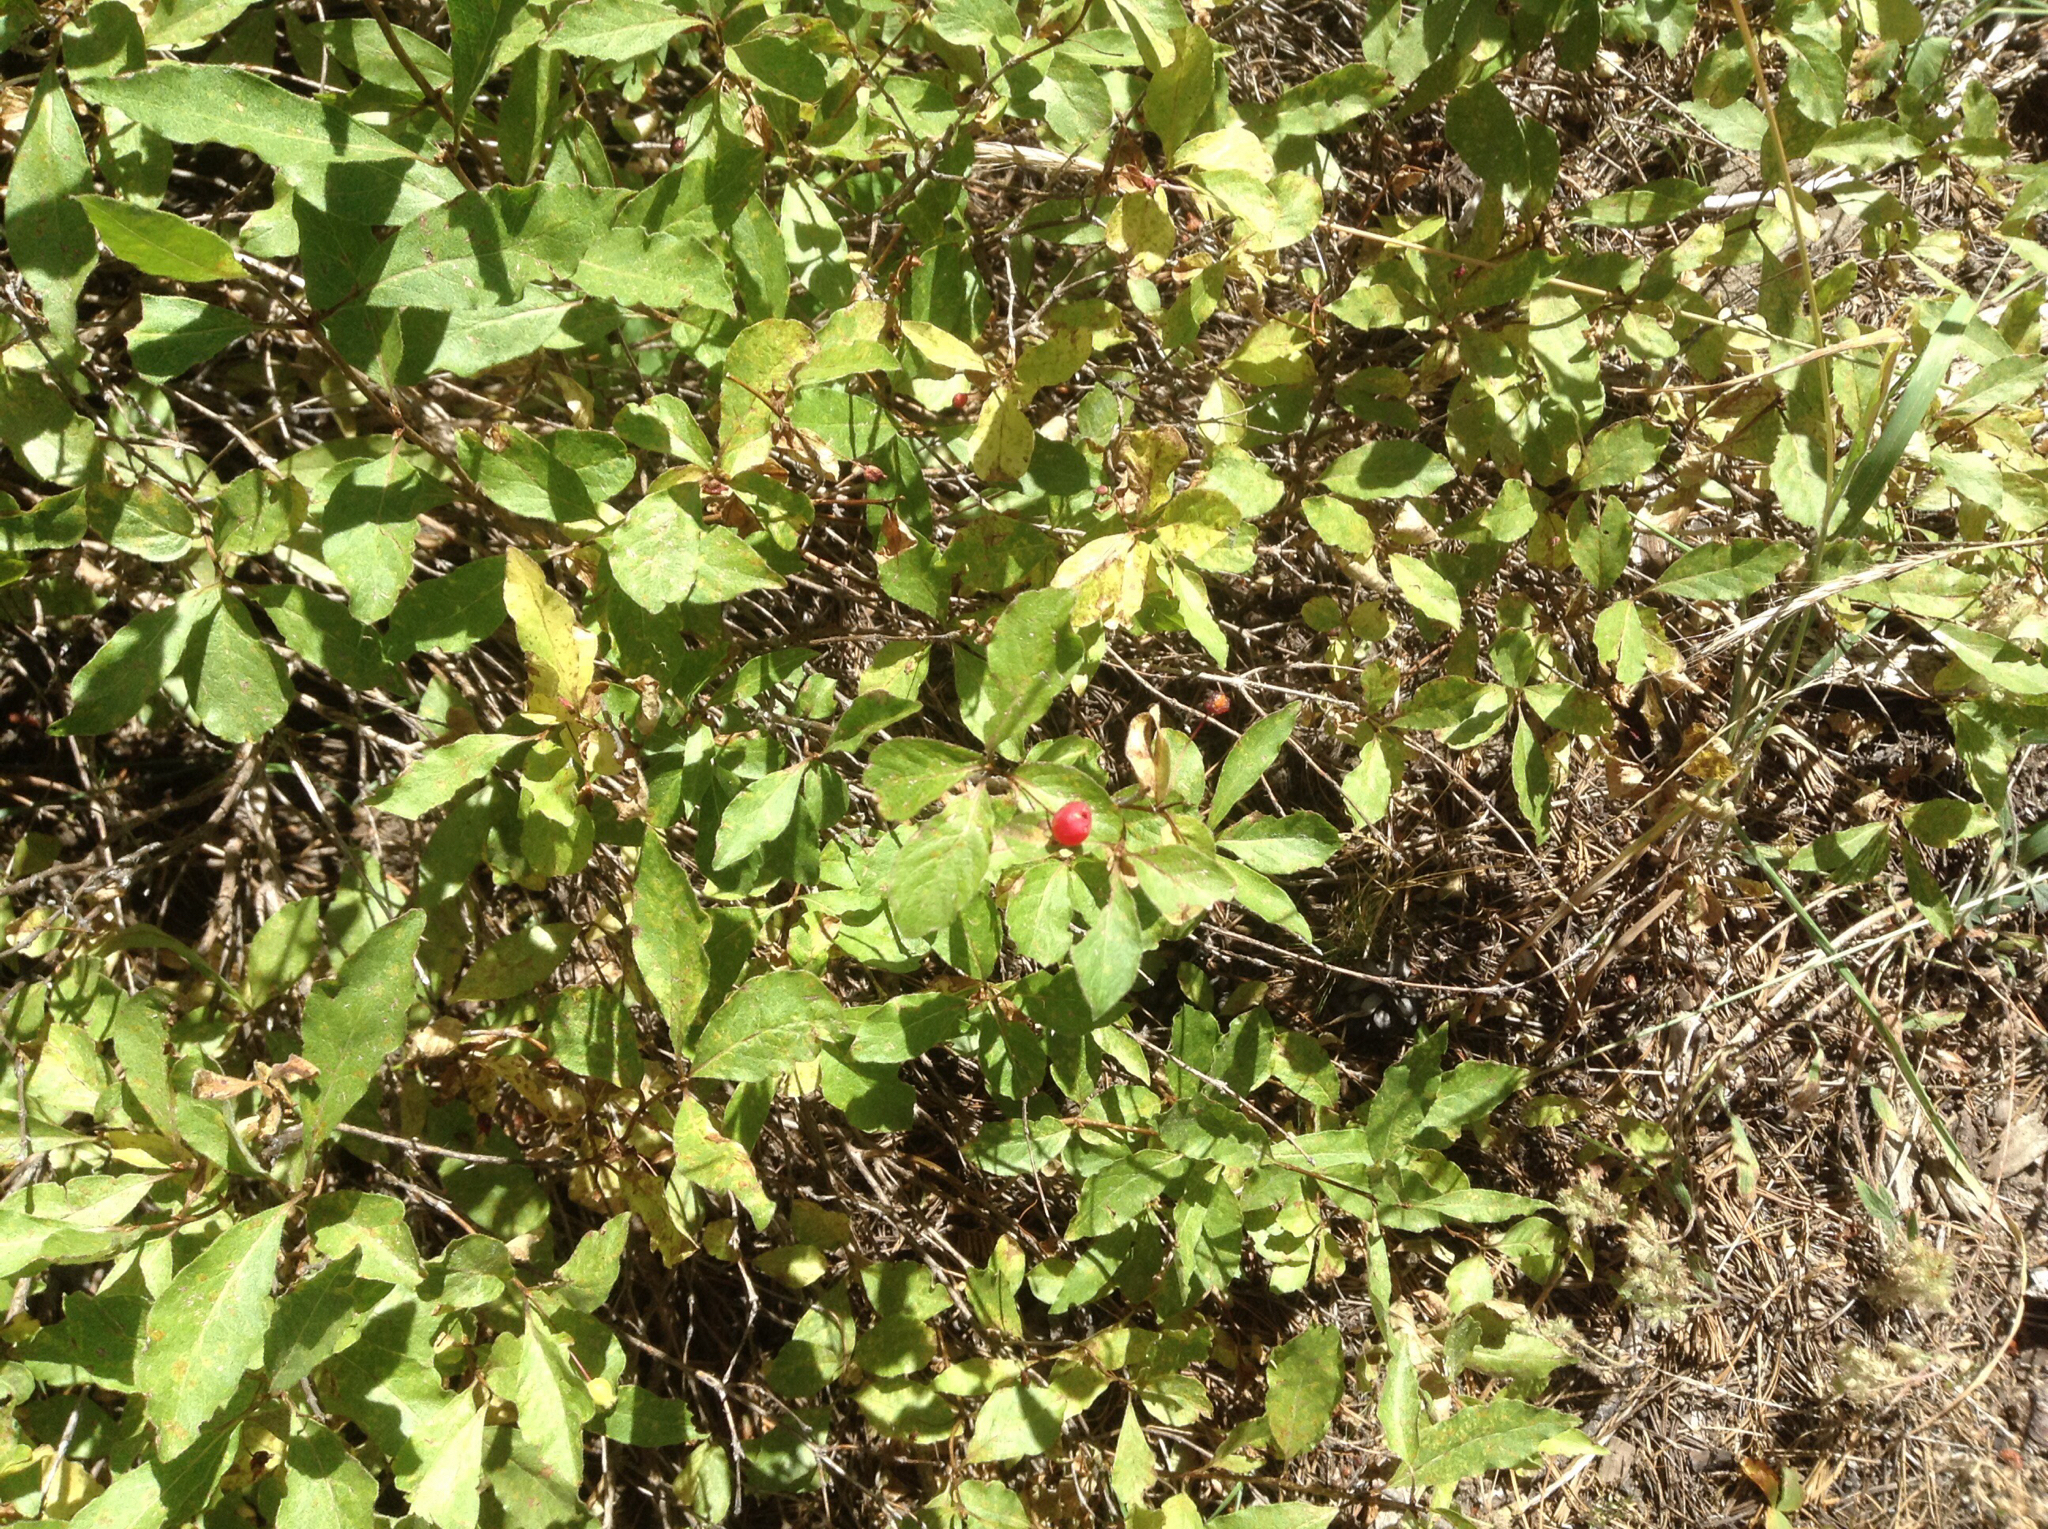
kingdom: Plantae
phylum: Tracheophyta
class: Magnoliopsida
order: Dipsacales
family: Caprifoliaceae
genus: Lonicera
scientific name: Lonicera conjugialis
